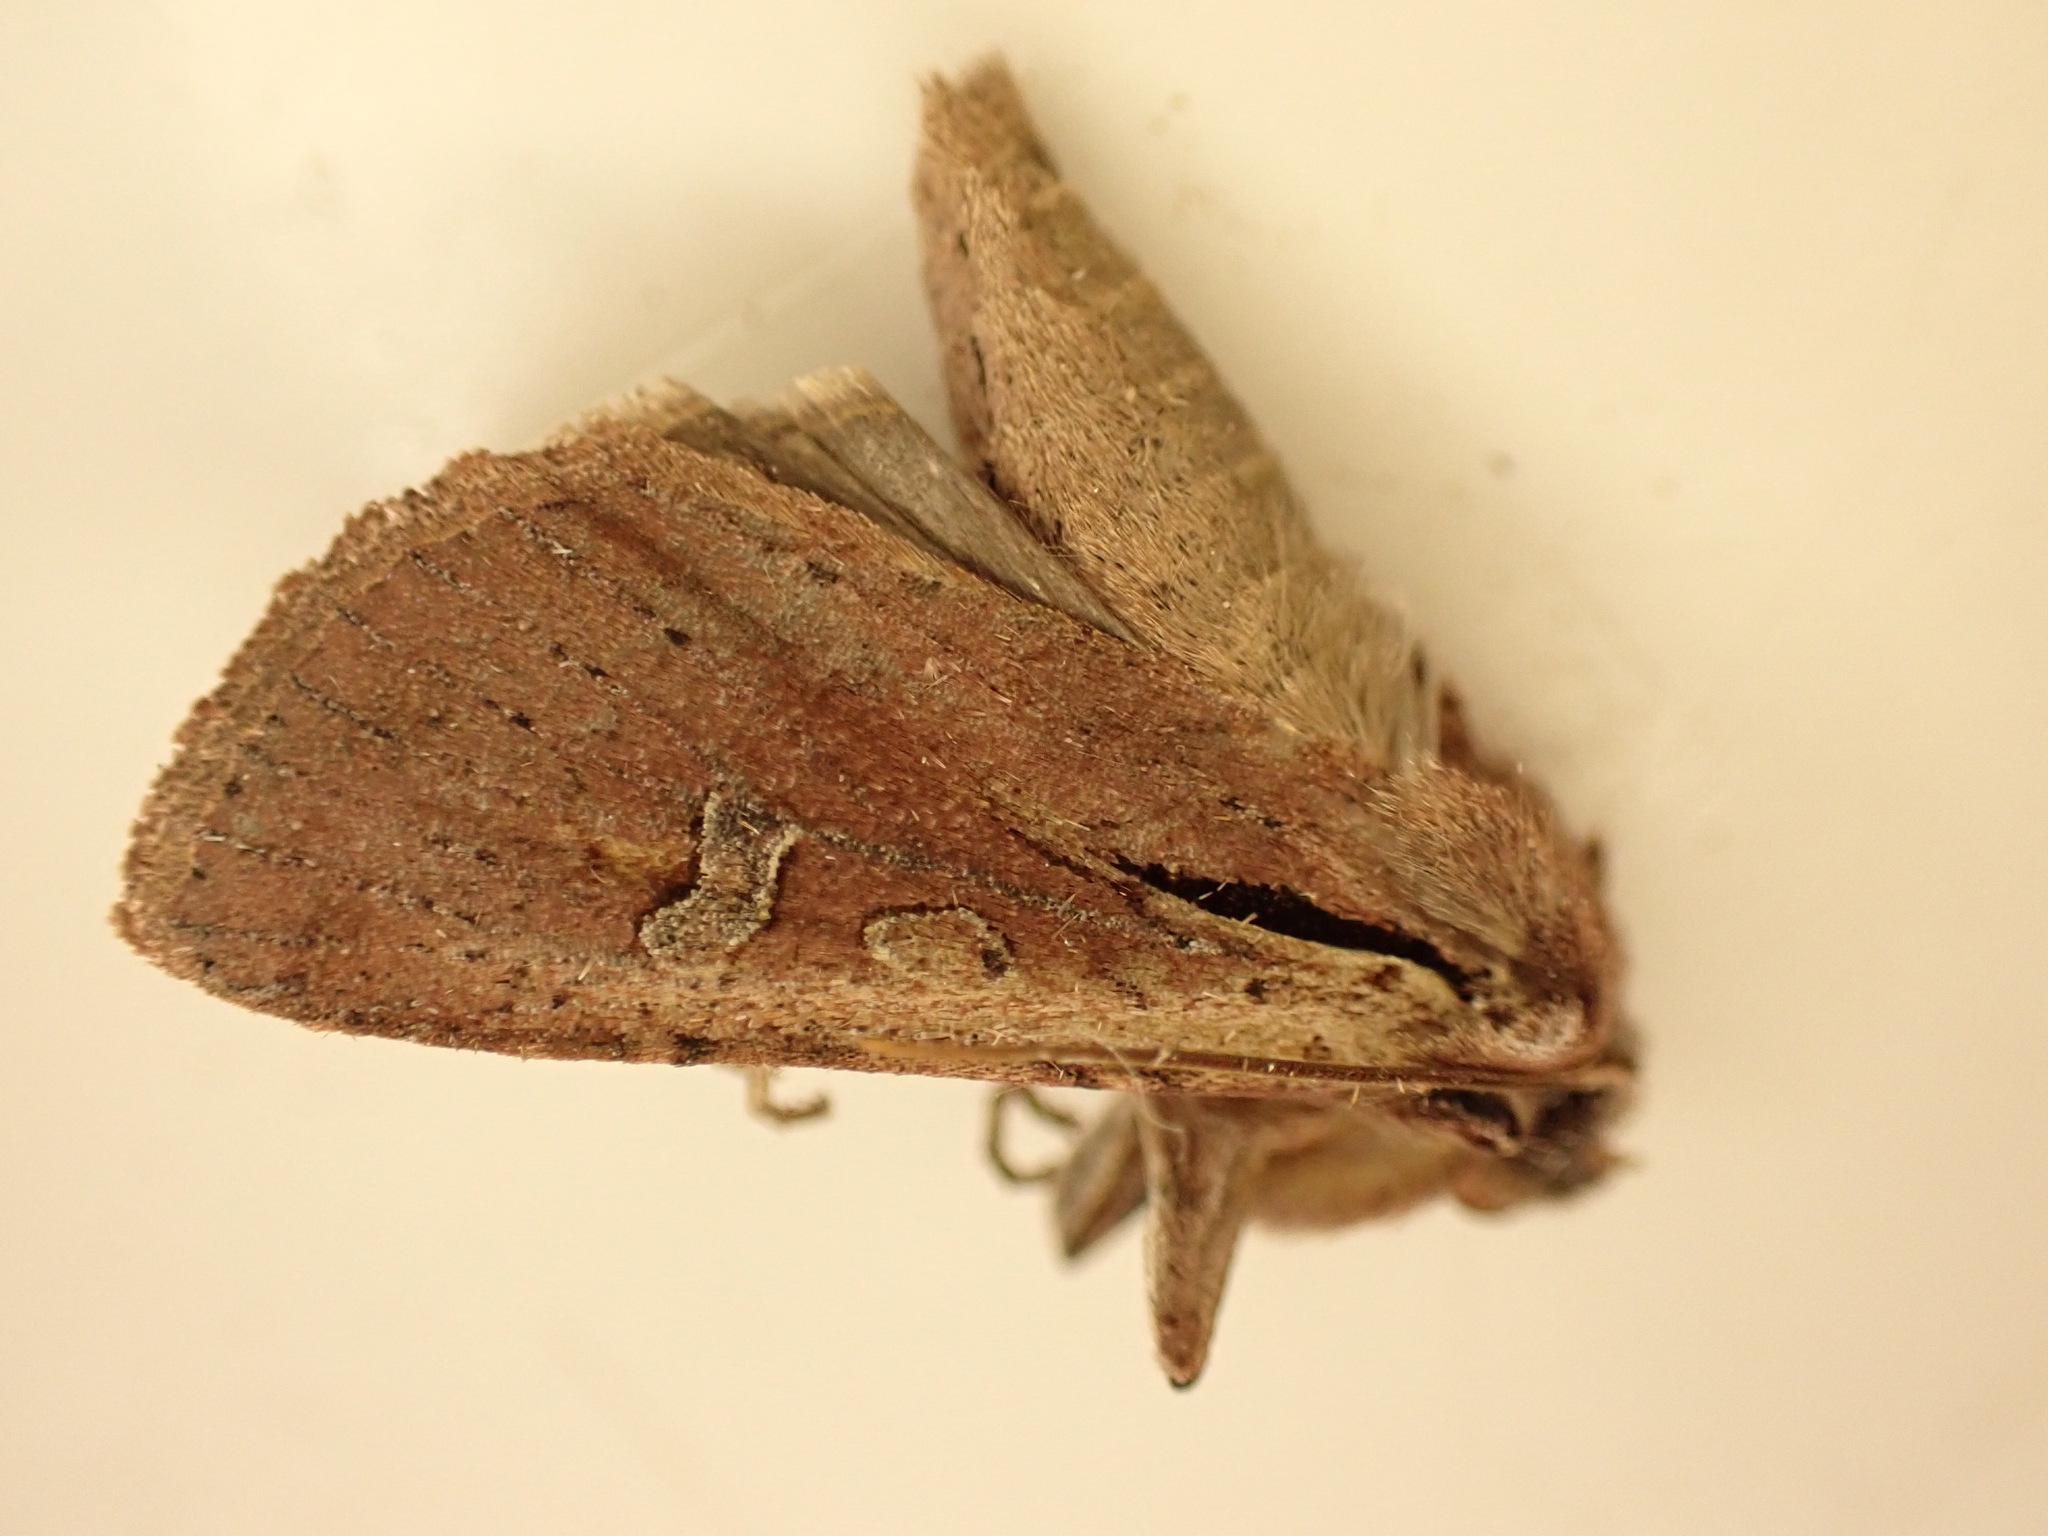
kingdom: Animalia
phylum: Arthropoda
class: Insecta
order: Lepidoptera
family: Noctuidae
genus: Ichneutica
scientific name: Ichneutica atristriga
